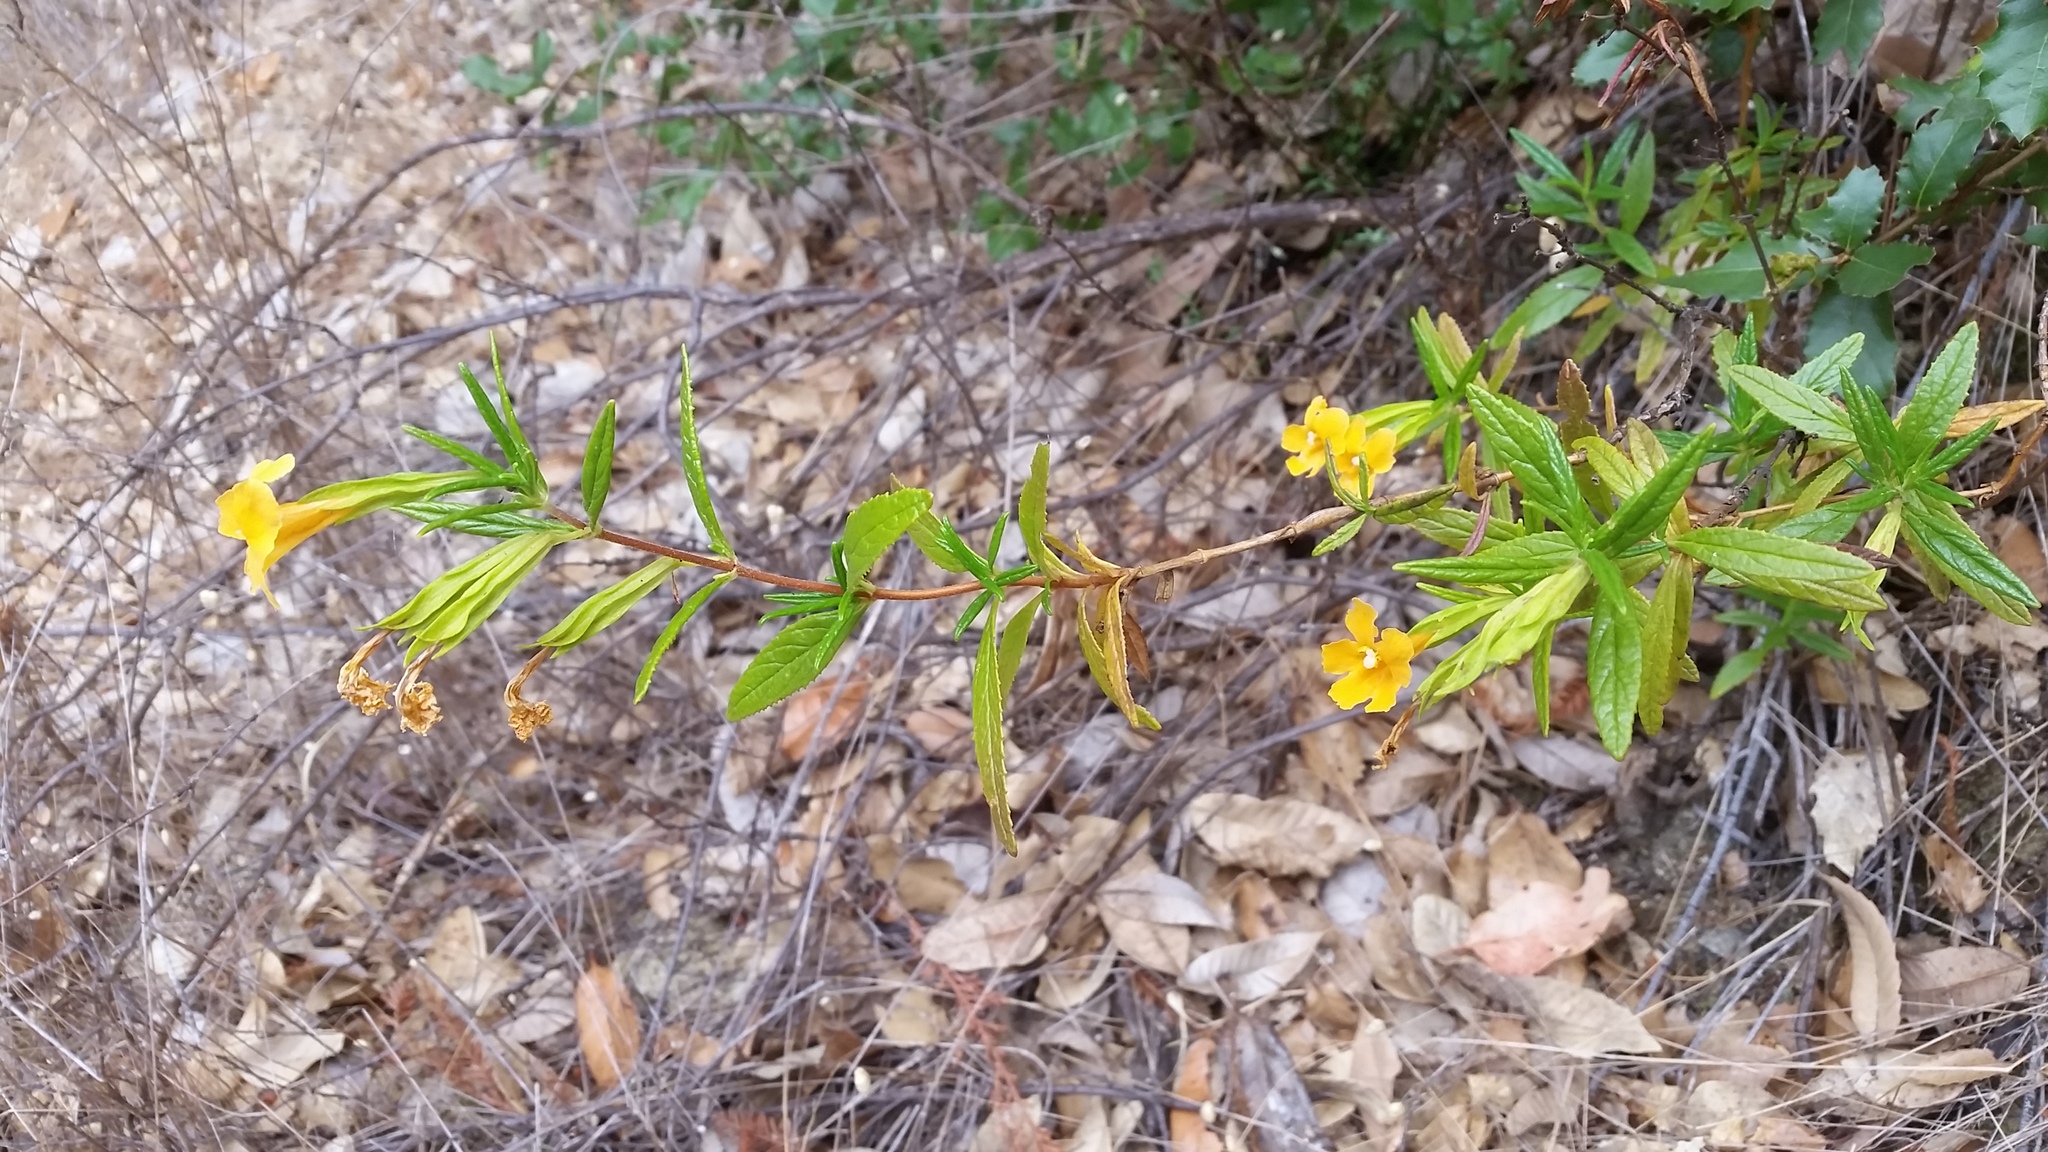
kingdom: Plantae
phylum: Tracheophyta
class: Magnoliopsida
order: Lamiales
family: Phrymaceae
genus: Diplacus
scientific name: Diplacus aurantiacus
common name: Bush monkey-flower
